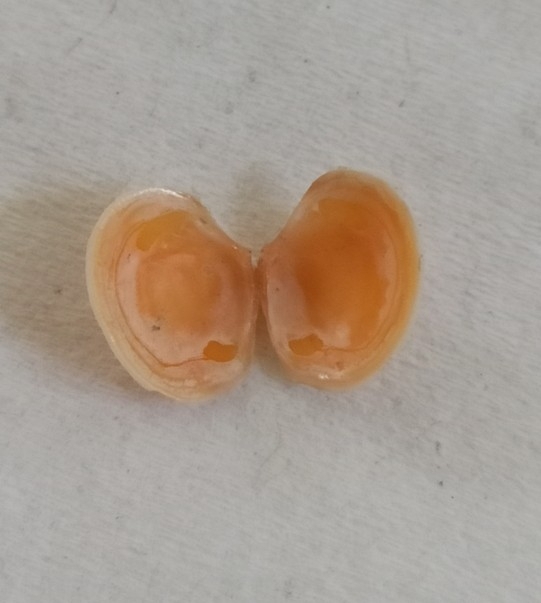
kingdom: Animalia
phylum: Mollusca
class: Bivalvia
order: Lucinida
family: Lucinidae
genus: Myrtea
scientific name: Myrtea spinifera
